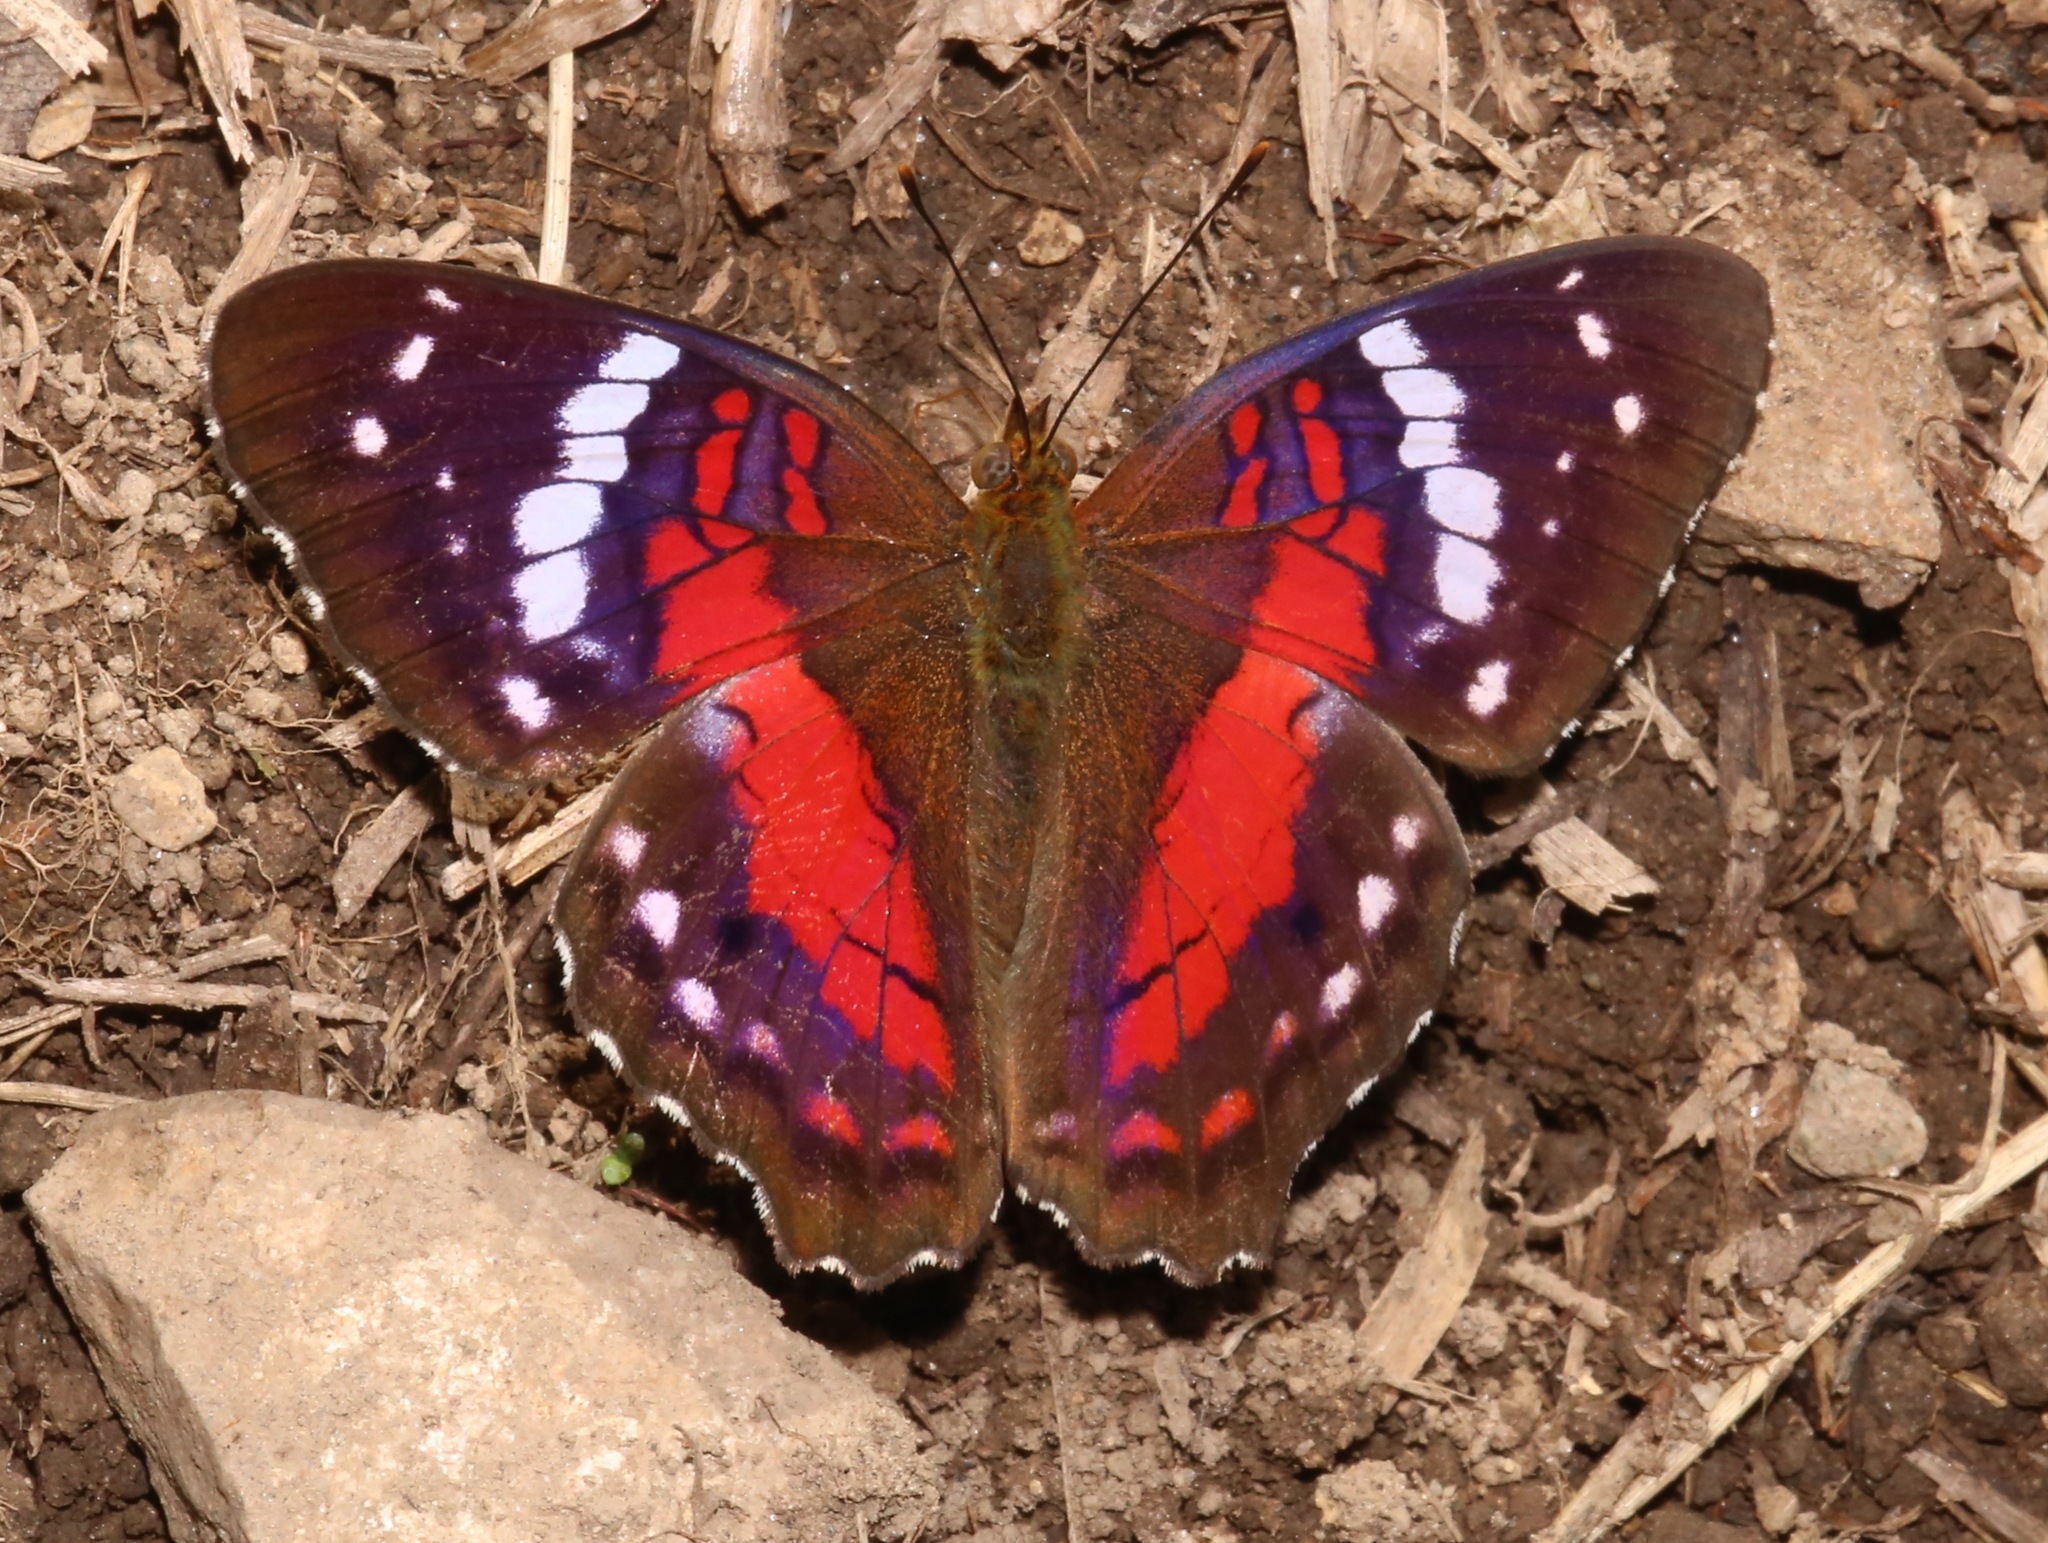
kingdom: Animalia
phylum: Arthropoda
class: Insecta
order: Lepidoptera
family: Nymphalidae
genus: Anartia
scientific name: Anartia amathea
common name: Red peacock
